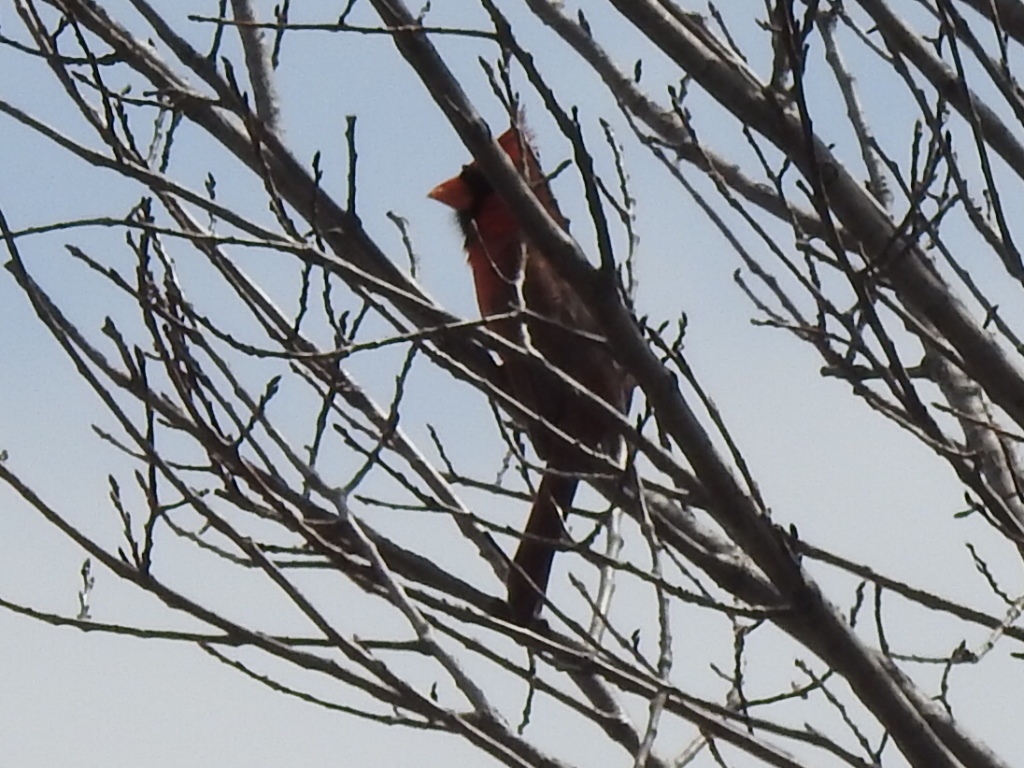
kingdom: Animalia
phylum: Chordata
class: Aves
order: Passeriformes
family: Cardinalidae
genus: Cardinalis
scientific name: Cardinalis cardinalis
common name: Northern cardinal
